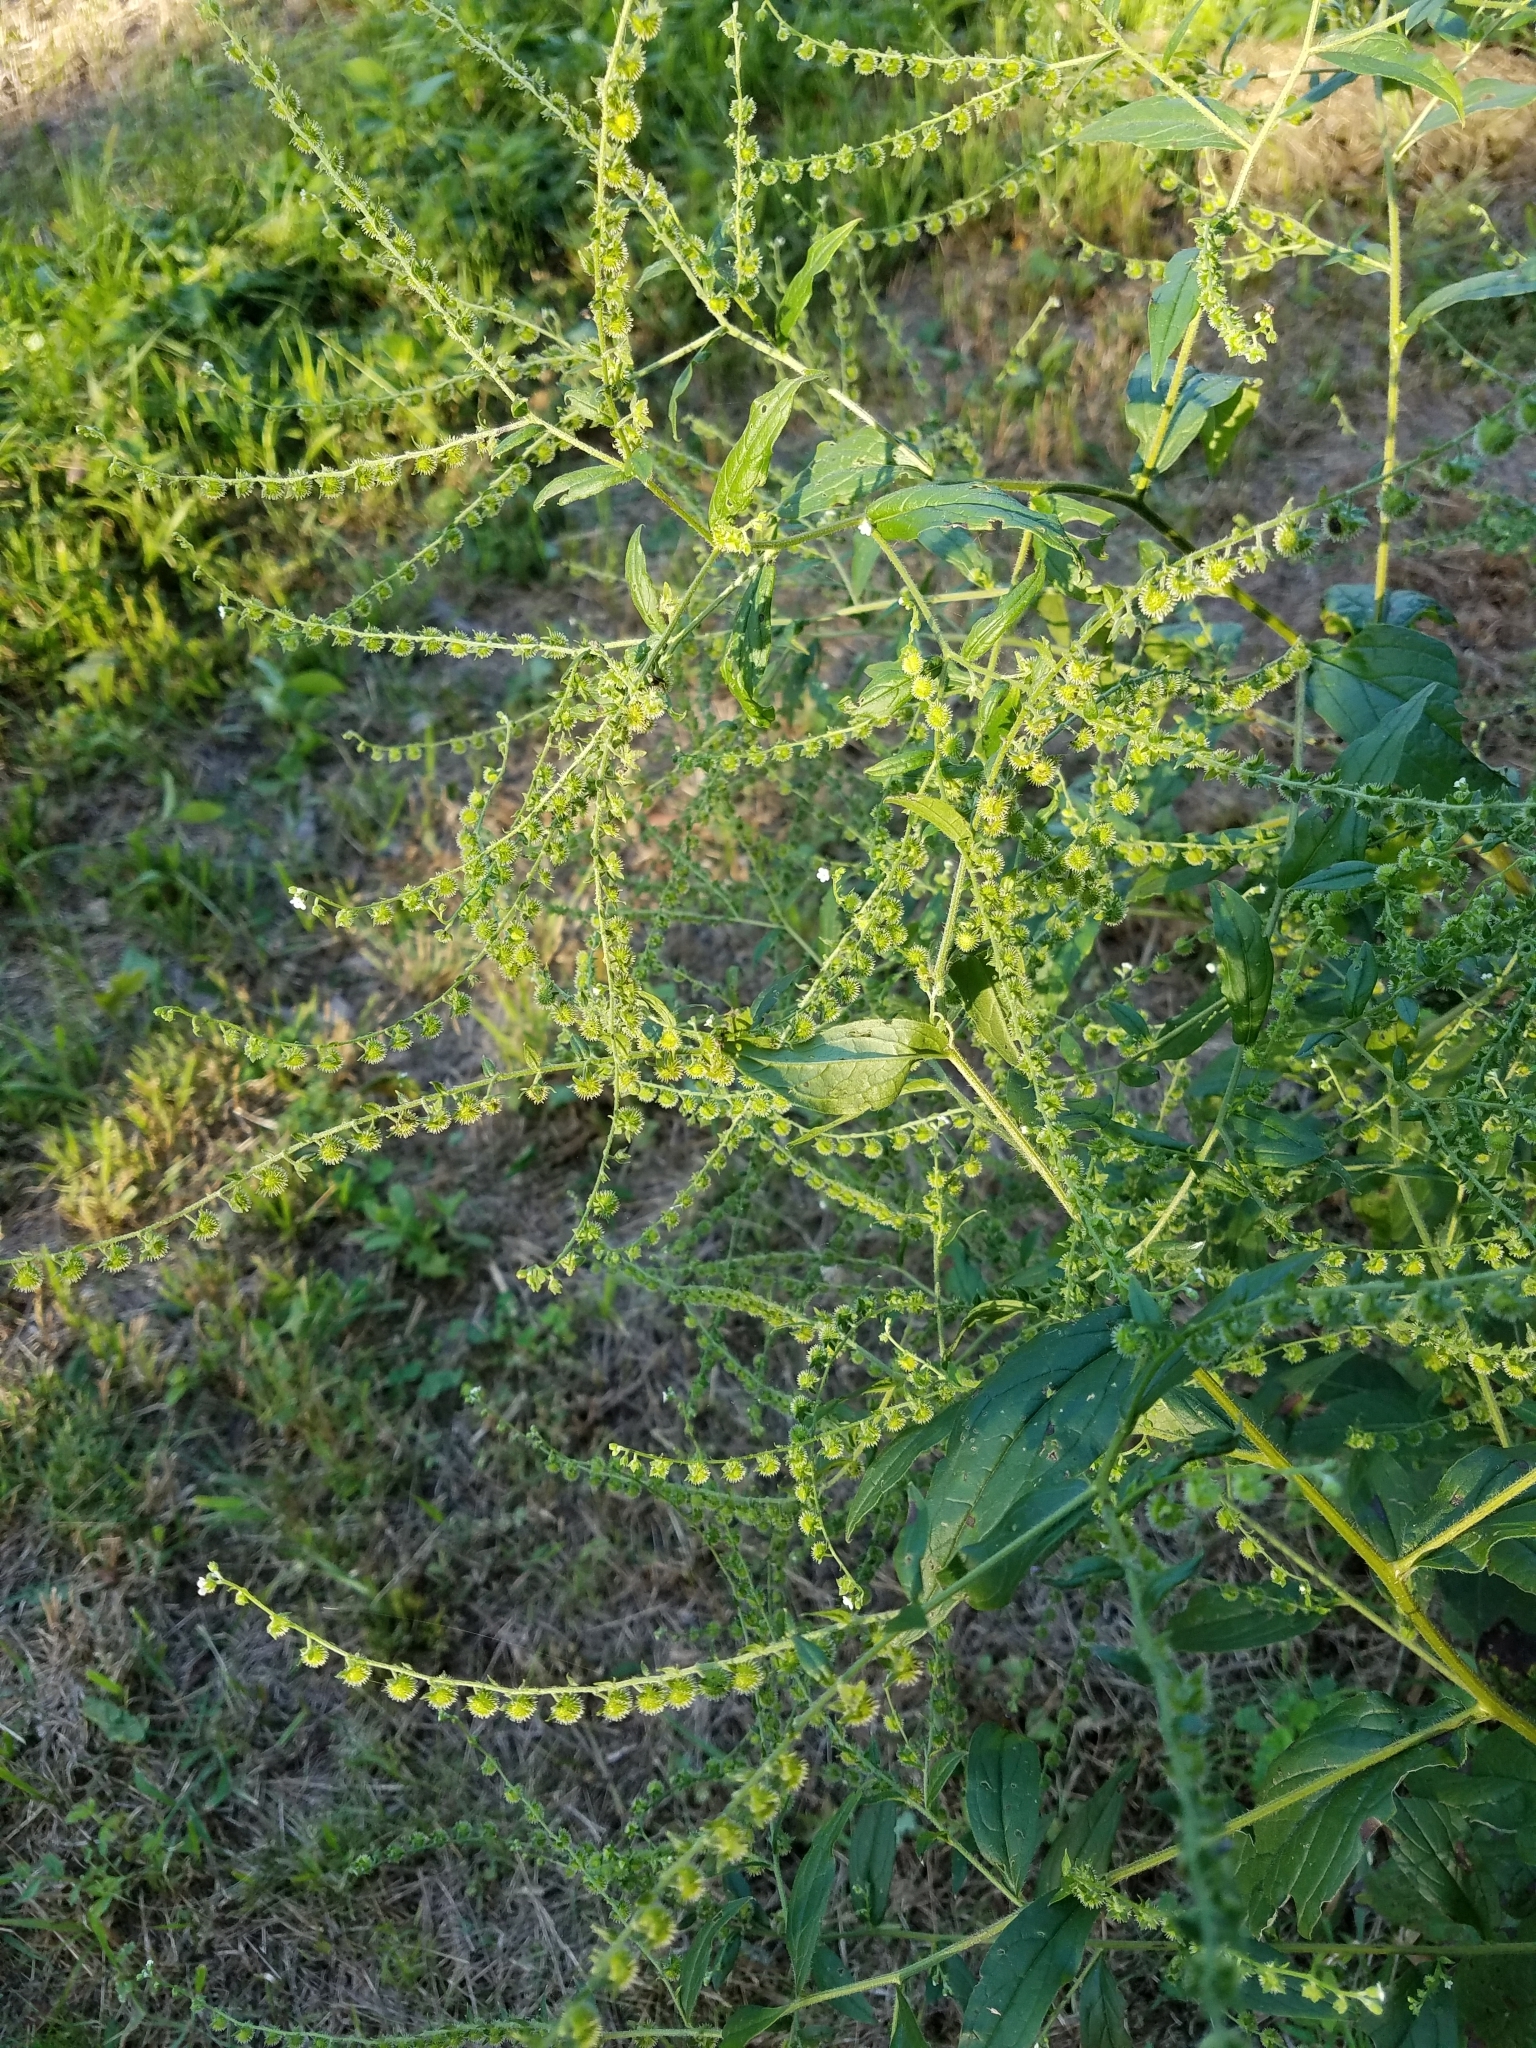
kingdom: Plantae
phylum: Tracheophyta
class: Magnoliopsida
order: Boraginales
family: Boraginaceae
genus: Hackelia
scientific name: Hackelia virginiana
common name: Beggar's-lice
